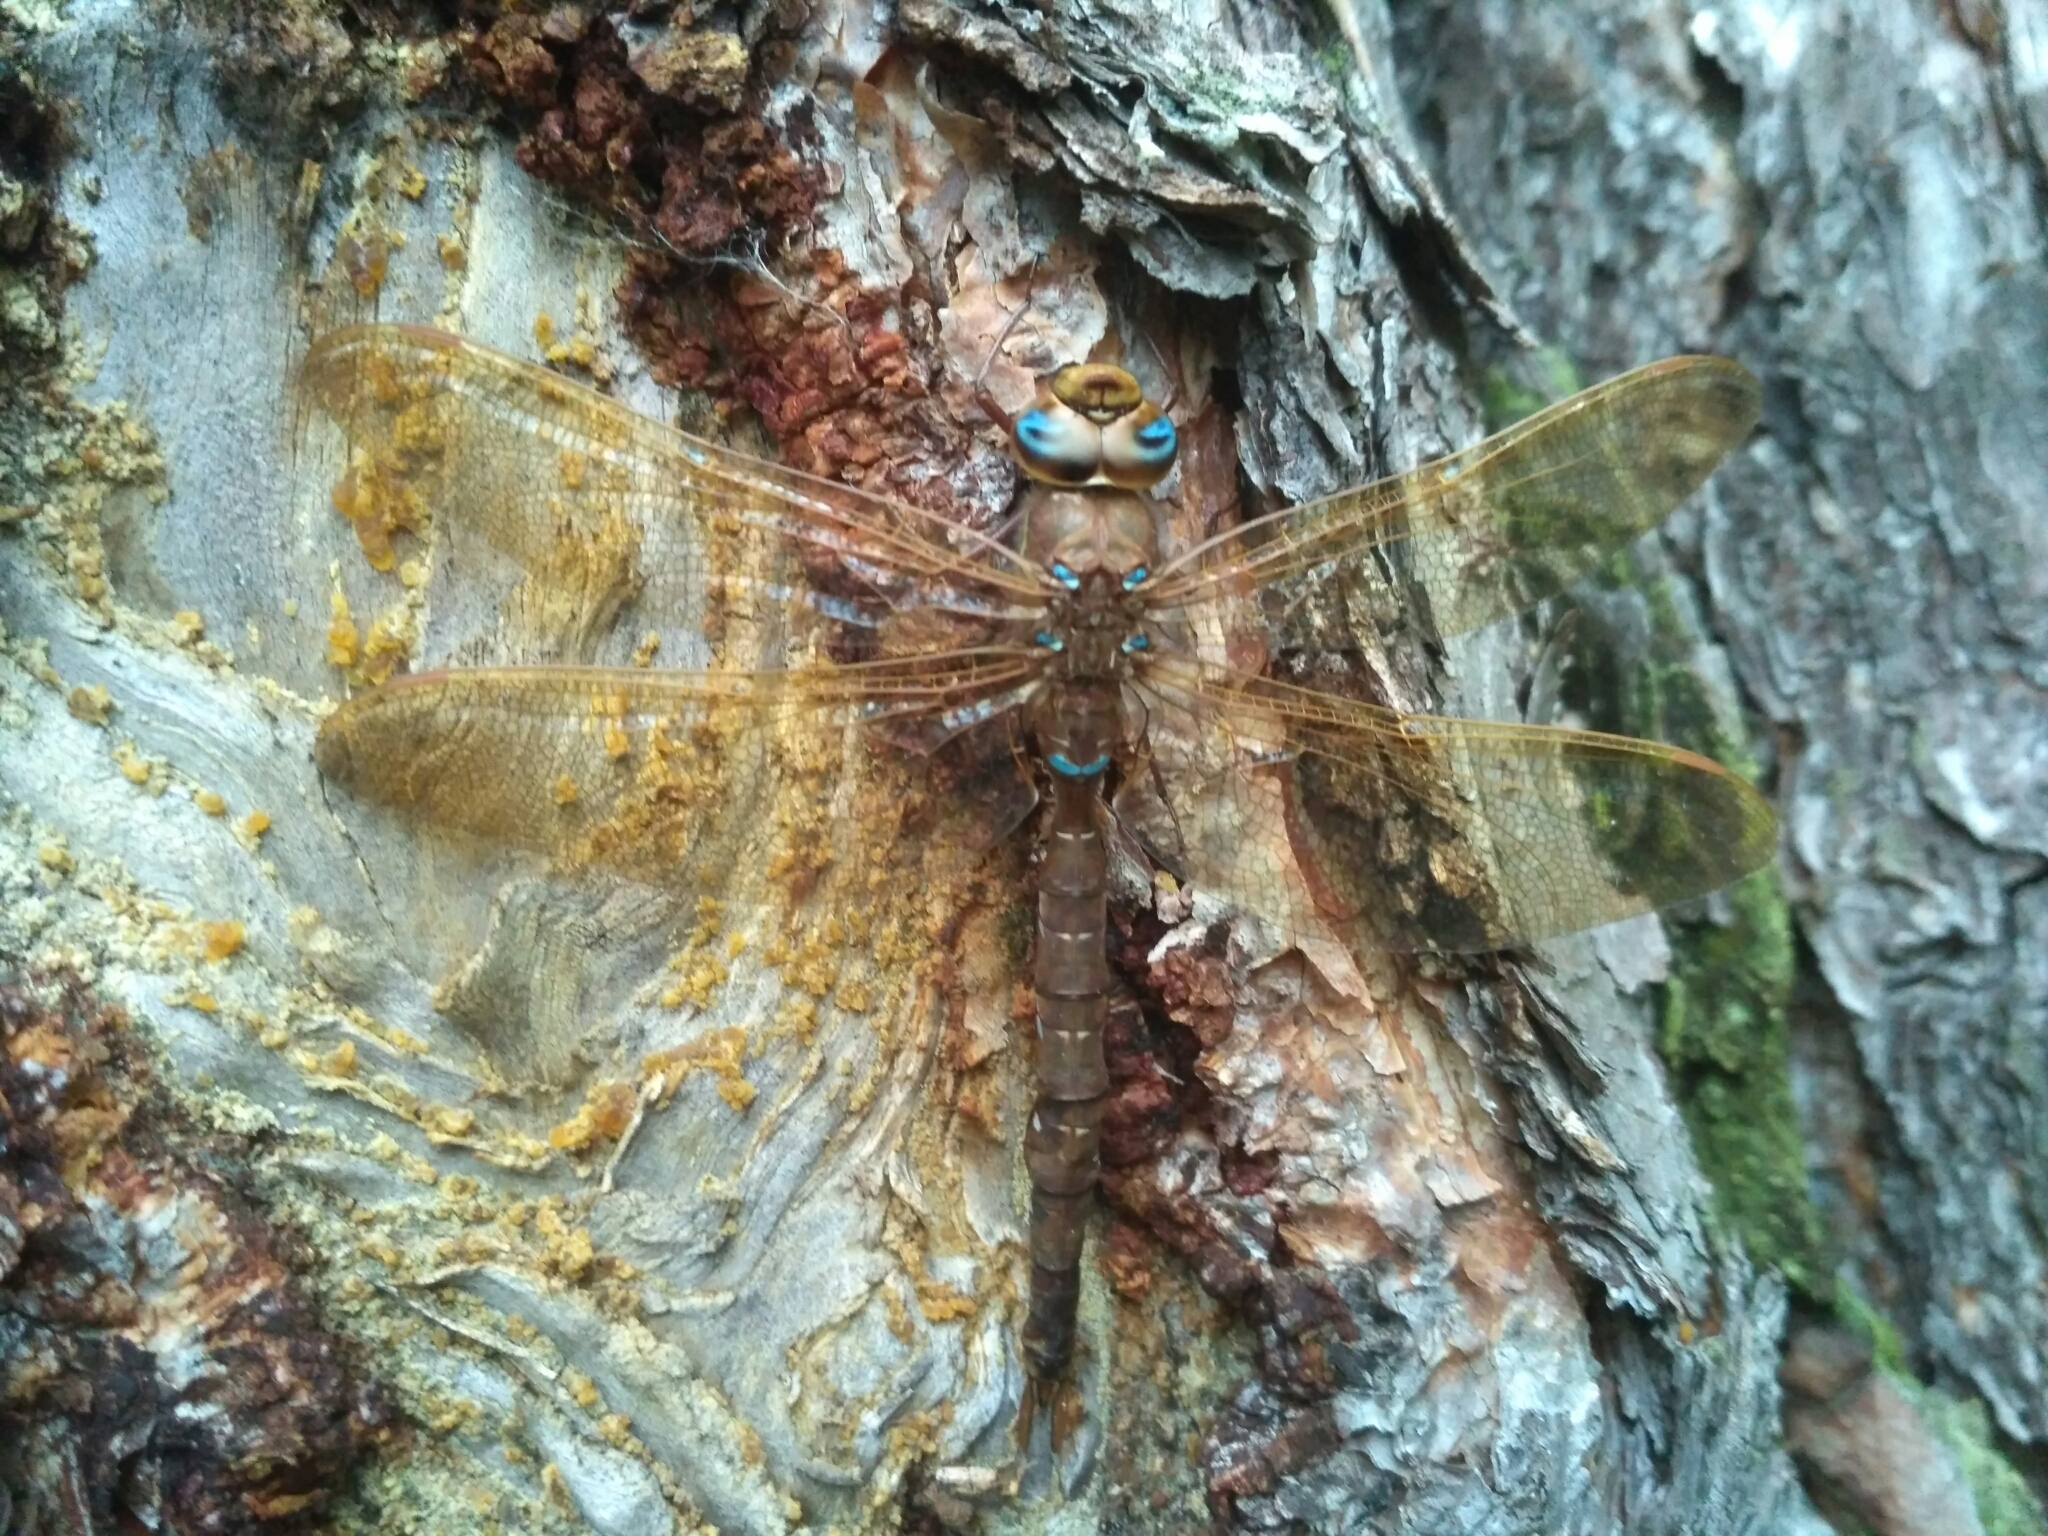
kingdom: Animalia
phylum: Arthropoda
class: Insecta
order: Odonata
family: Aeshnidae
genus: Aeshna
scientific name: Aeshna grandis
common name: Brown hawker
